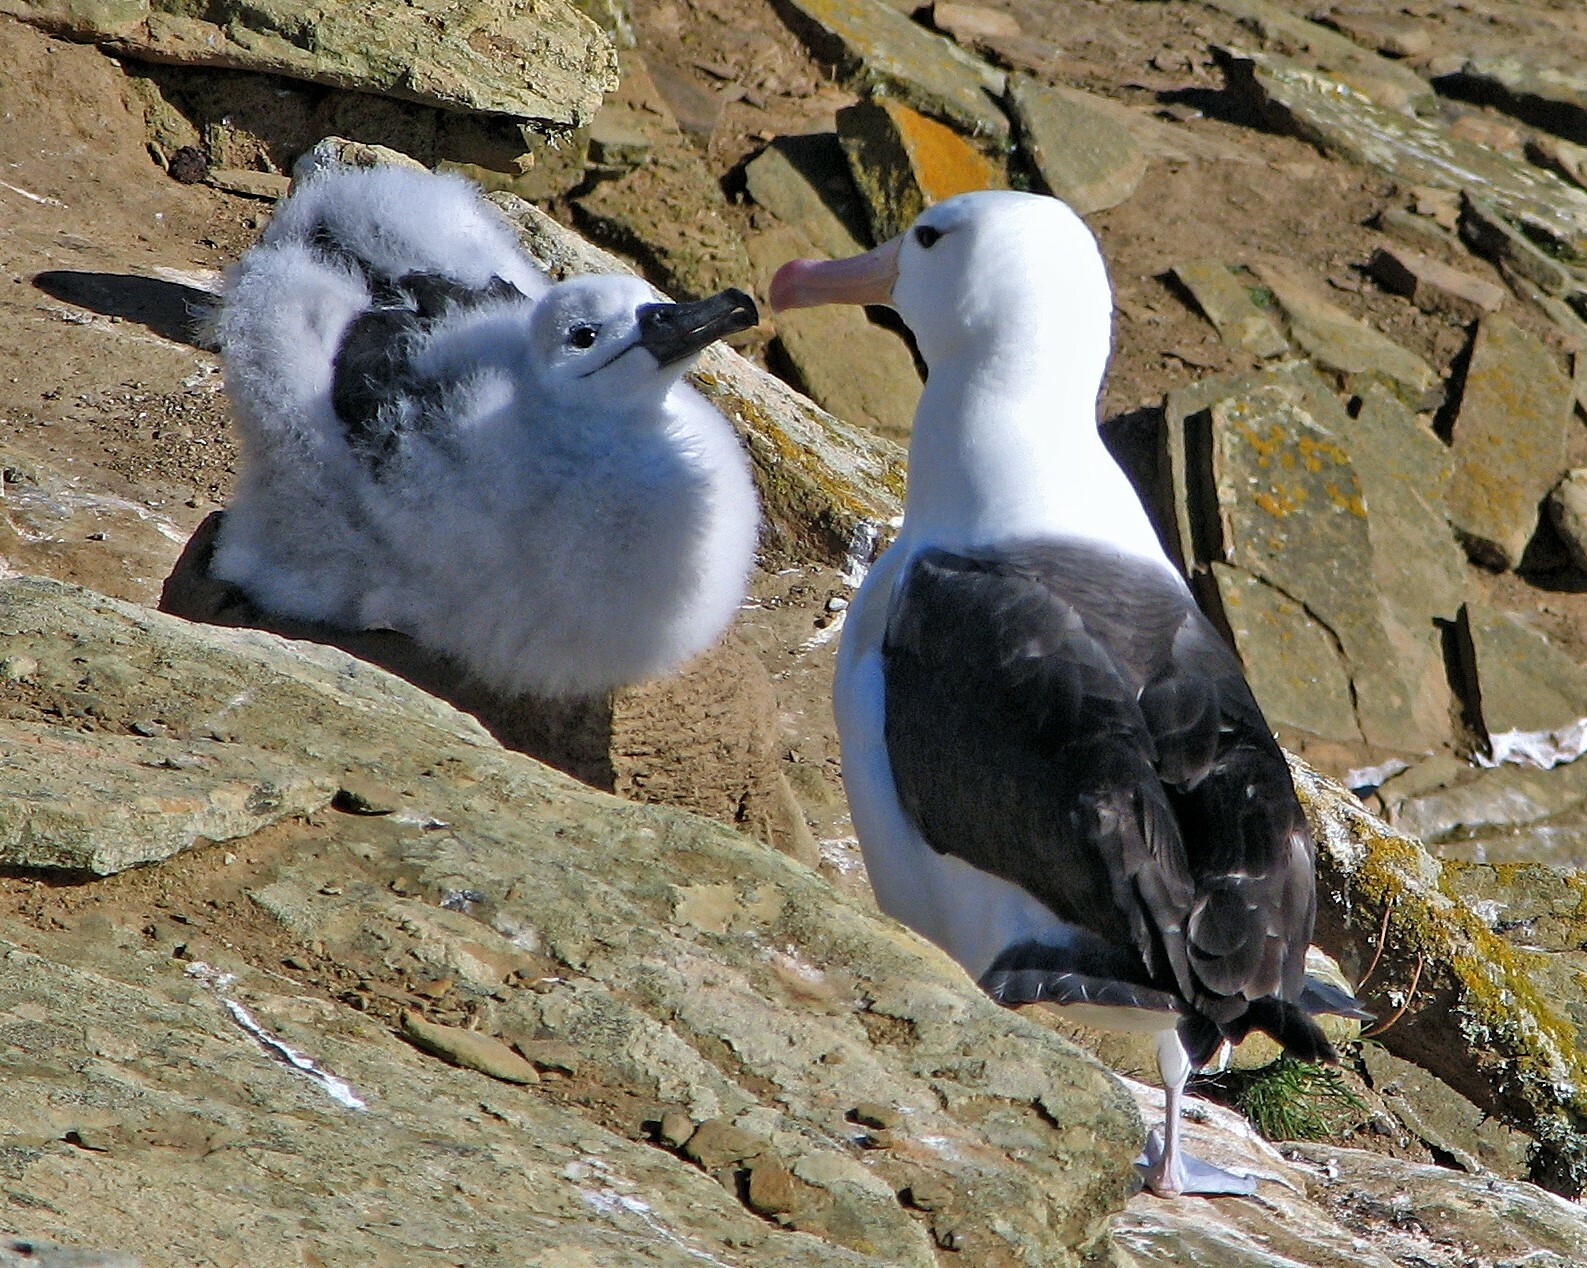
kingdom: Animalia
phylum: Chordata
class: Aves
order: Procellariiformes
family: Diomedeidae
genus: Thalassarche
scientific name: Thalassarche melanophris
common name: Black-browed albatross
